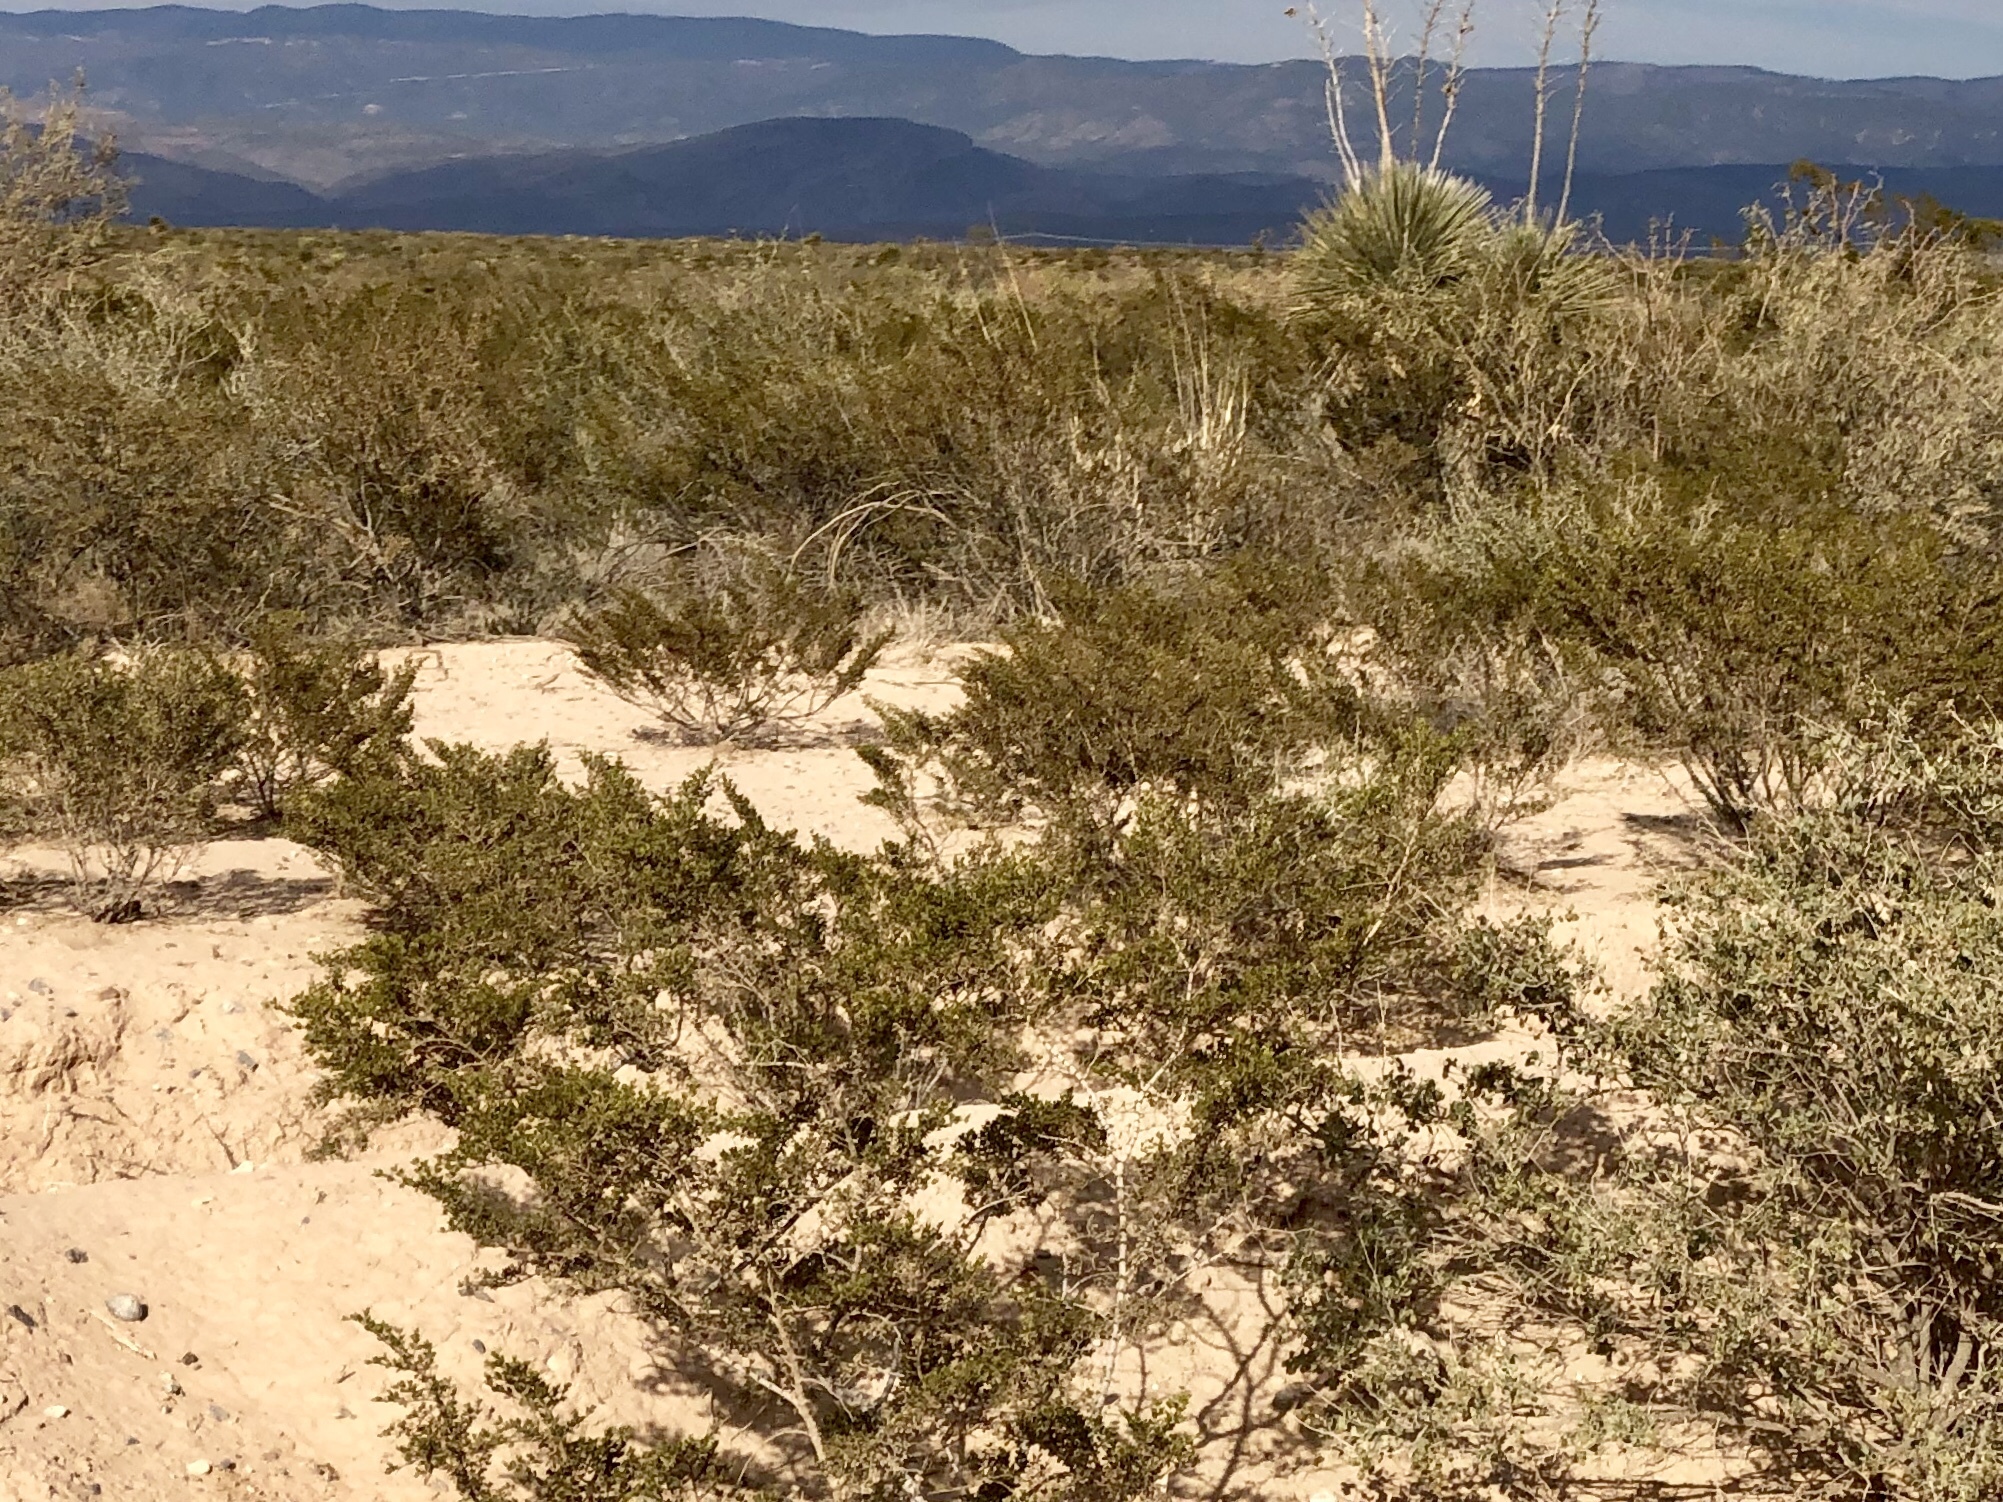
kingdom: Plantae
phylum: Tracheophyta
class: Magnoliopsida
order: Zygophyllales
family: Zygophyllaceae
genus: Larrea
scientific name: Larrea tridentata
